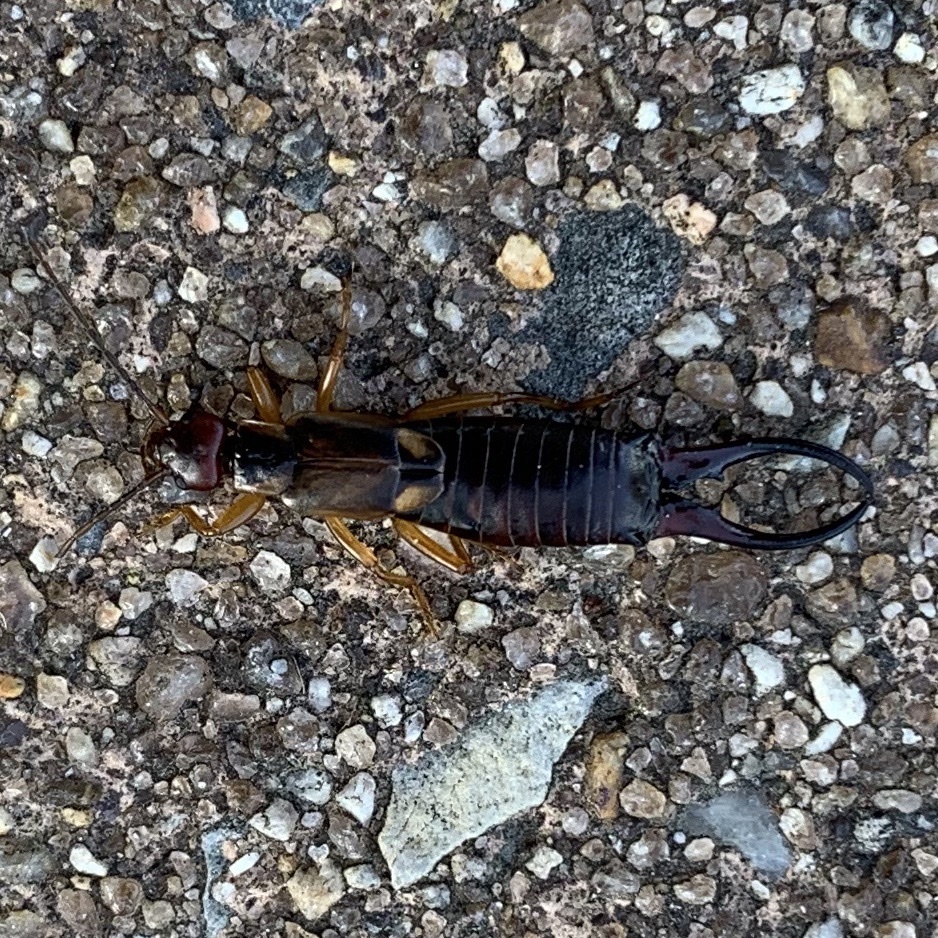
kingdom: Animalia
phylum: Arthropoda
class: Insecta
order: Dermaptera
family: Forficulidae
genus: Forficula
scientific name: Forficula
